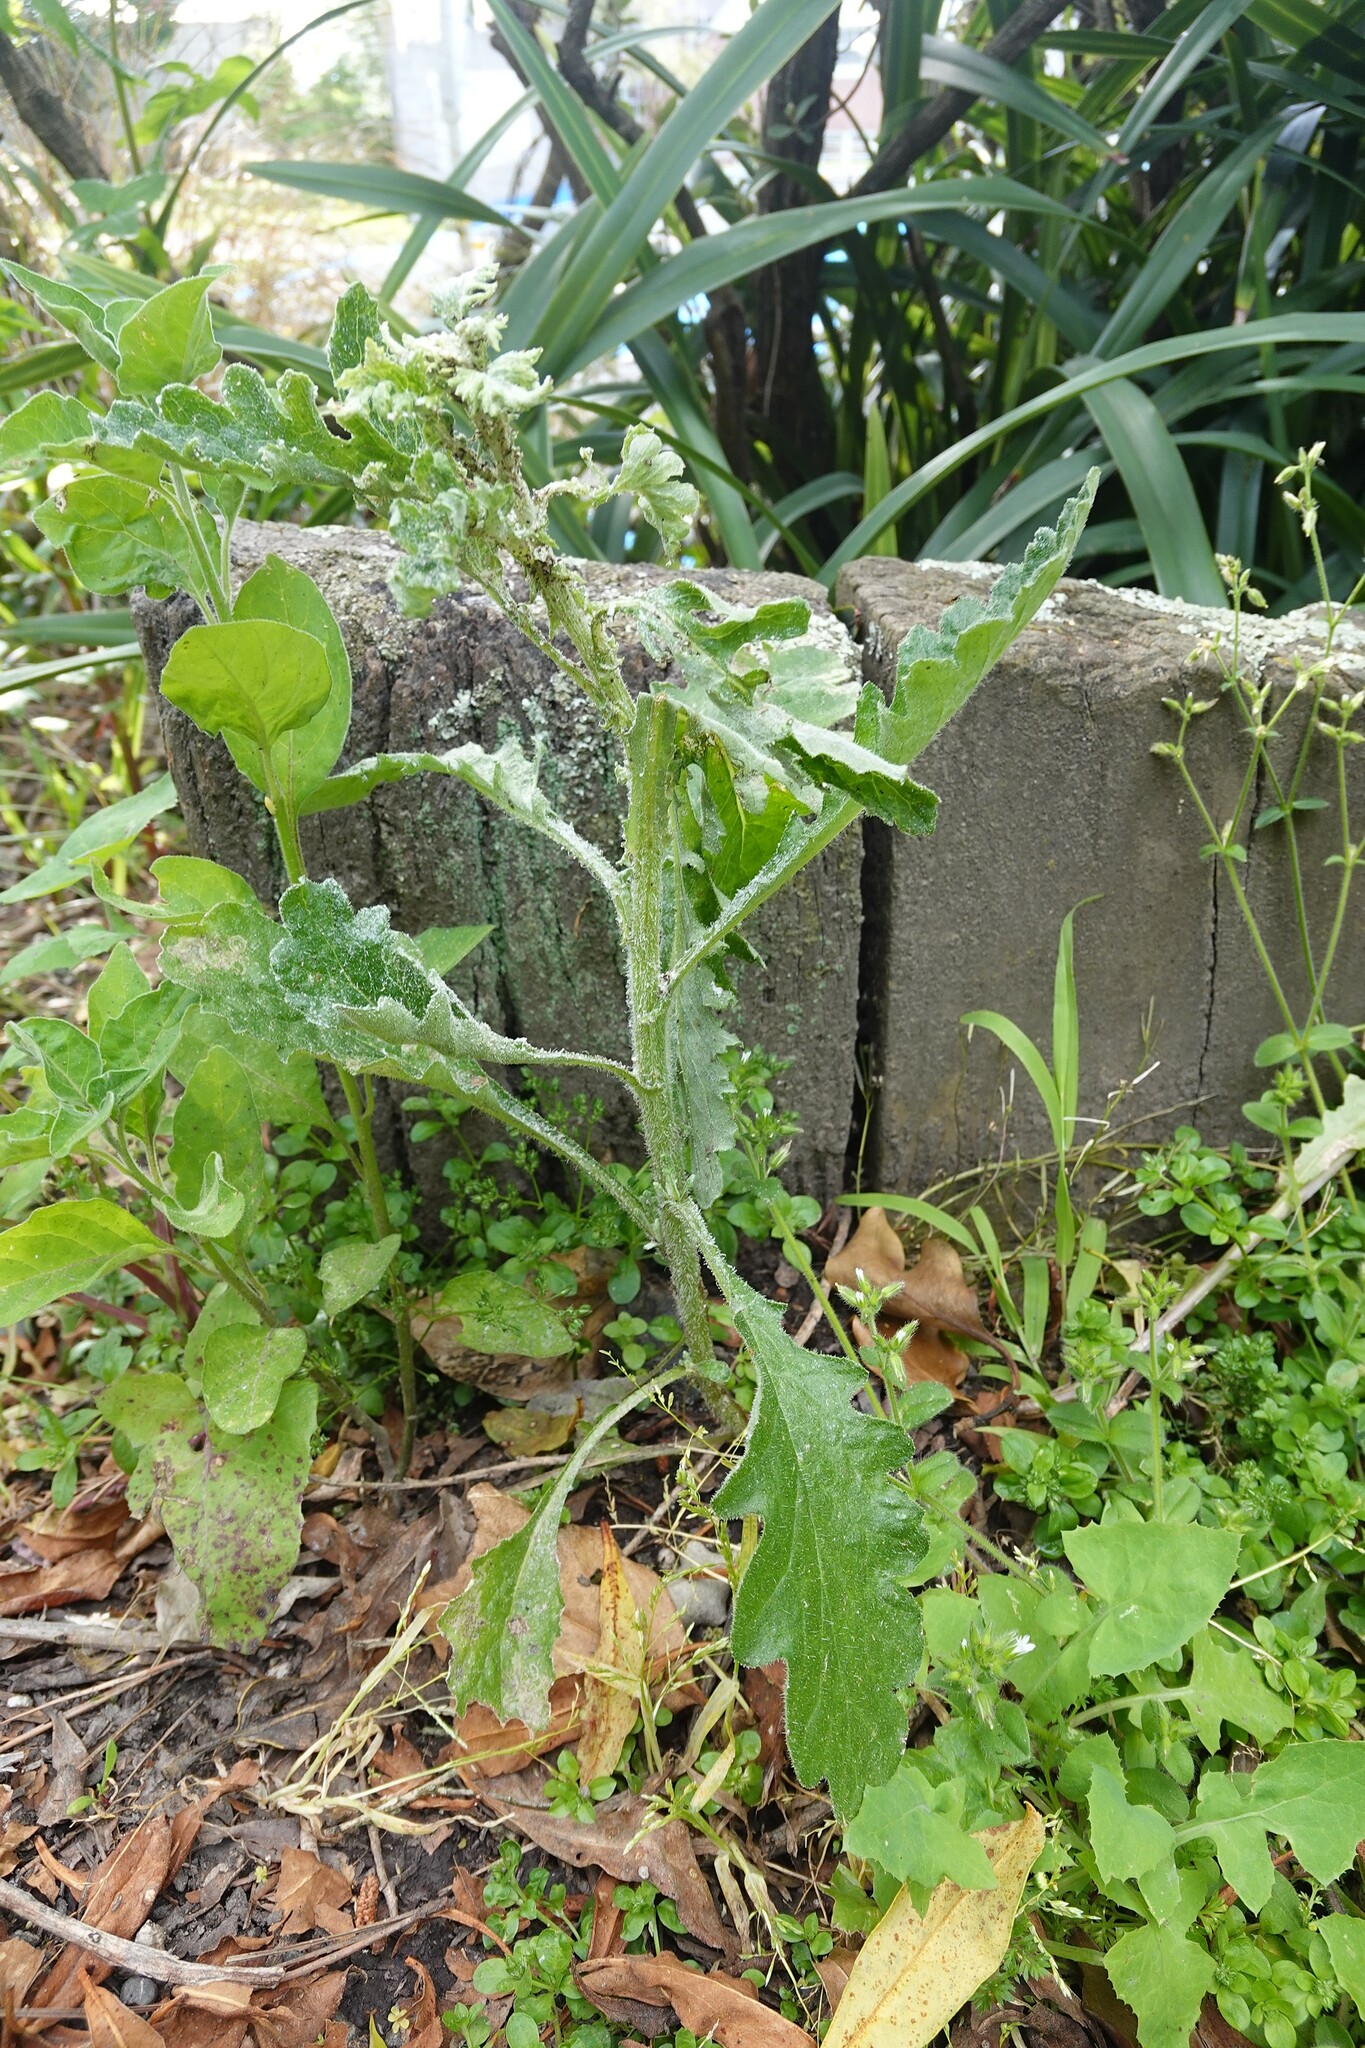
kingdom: Plantae
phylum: Tracheophyta
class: Magnoliopsida
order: Asterales
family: Asteraceae
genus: Senecio
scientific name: Senecio glomeratus
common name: Cutleaf burnweed
